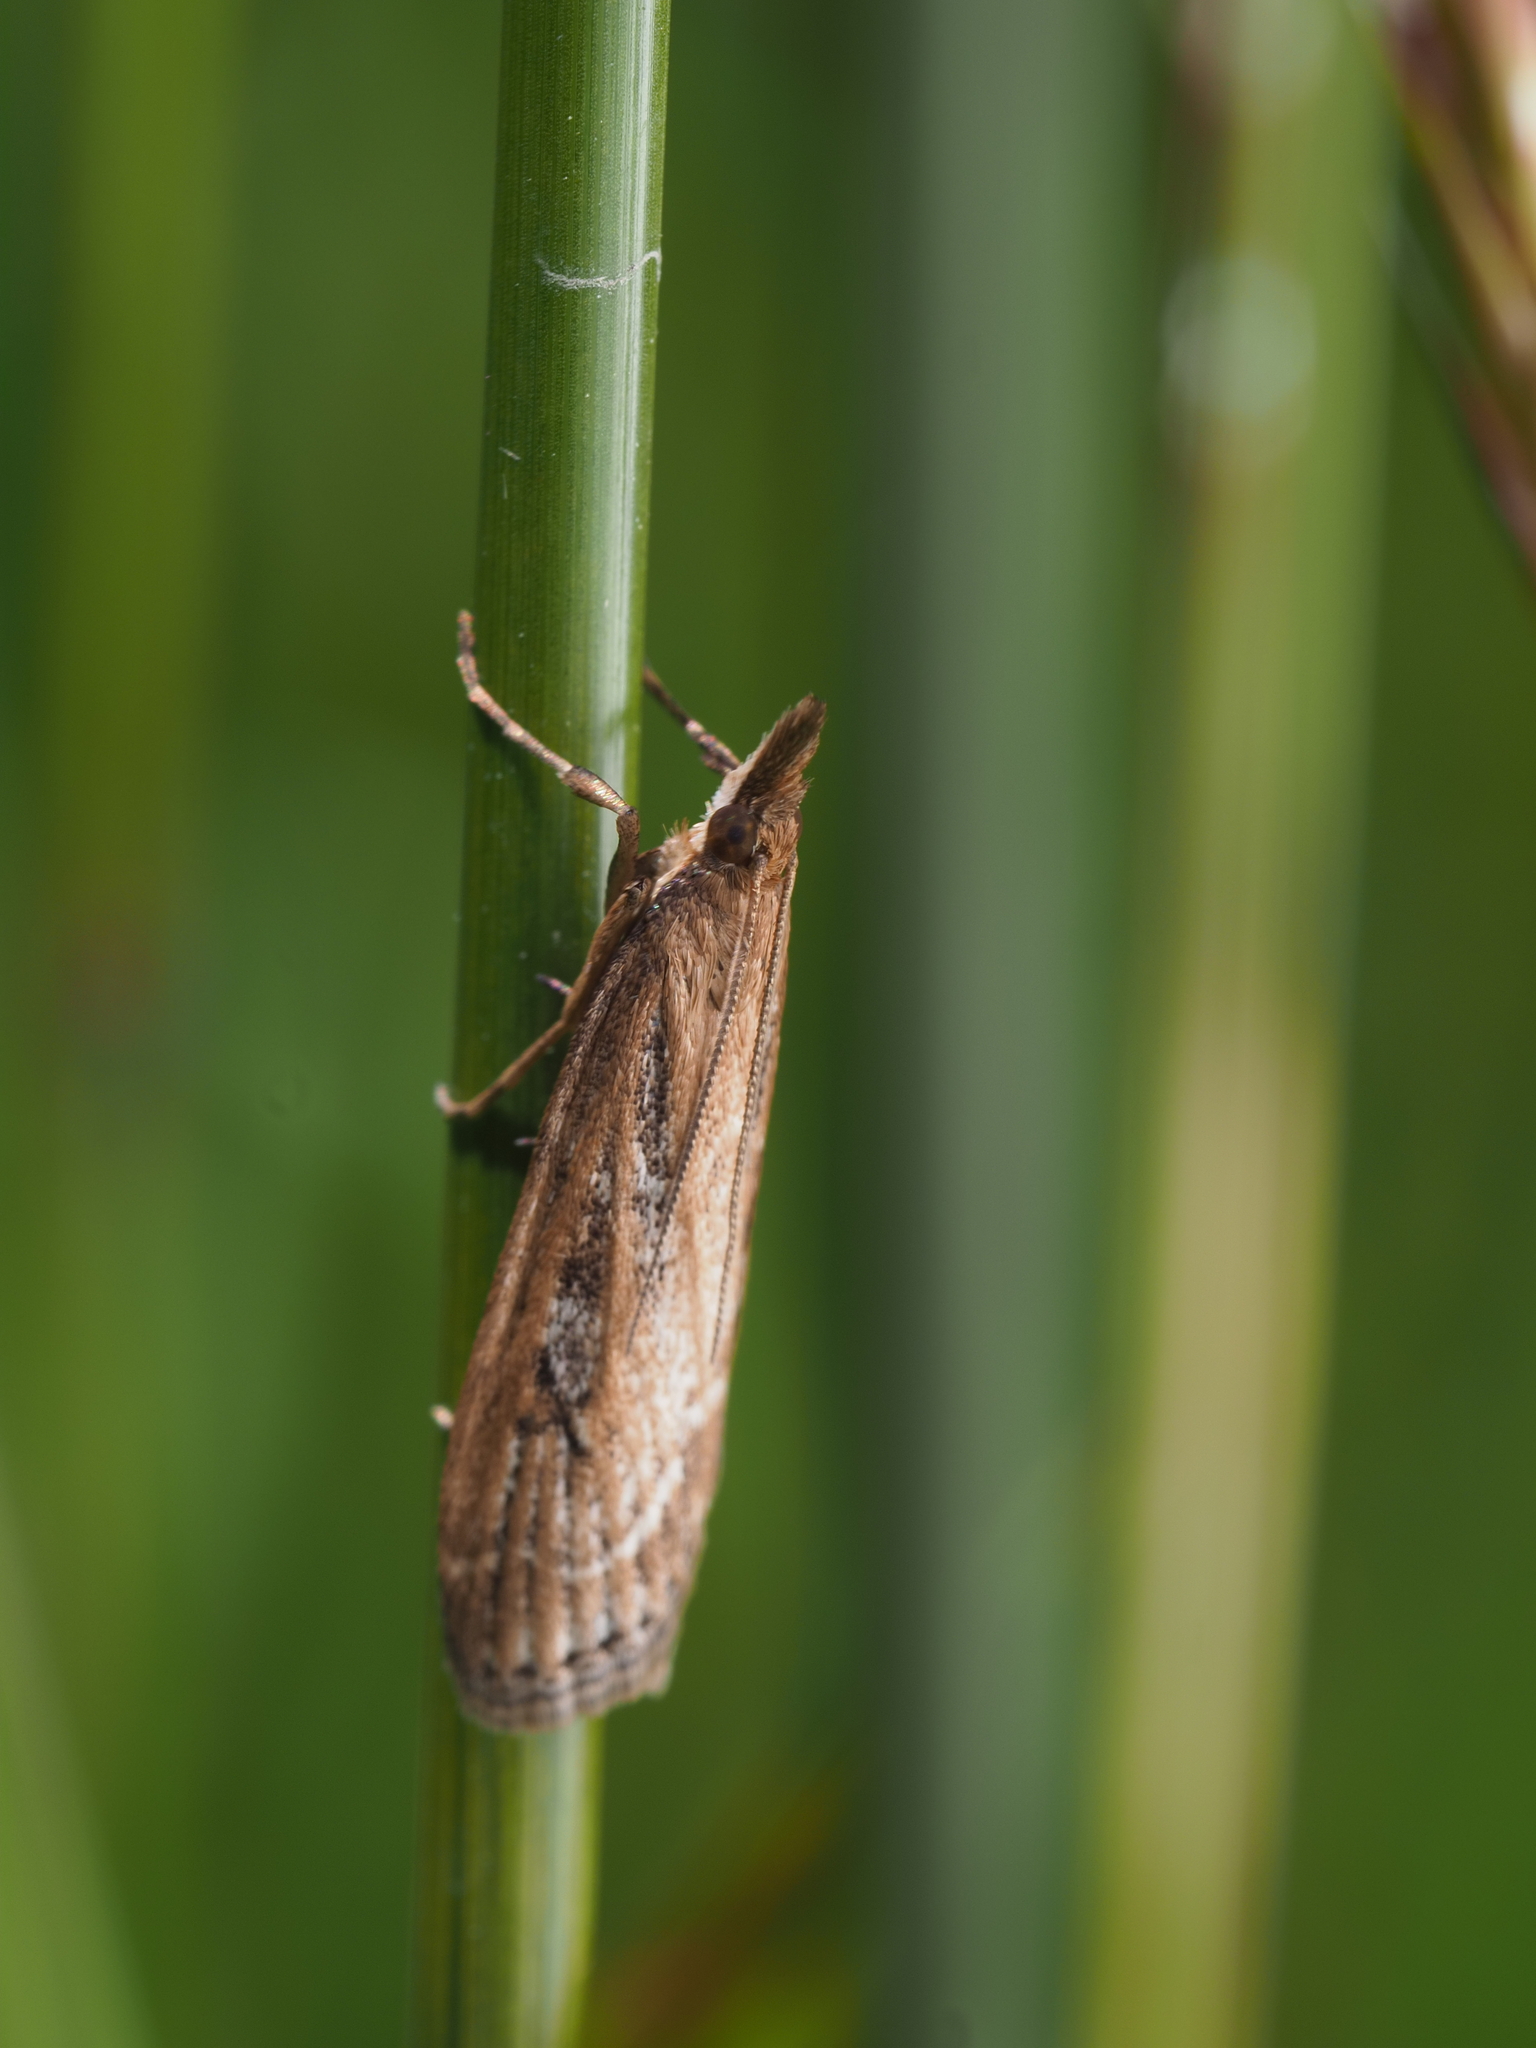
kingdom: Animalia
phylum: Arthropoda
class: Insecta
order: Lepidoptera
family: Crambidae
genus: Eudonia
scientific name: Eudonia octophora
